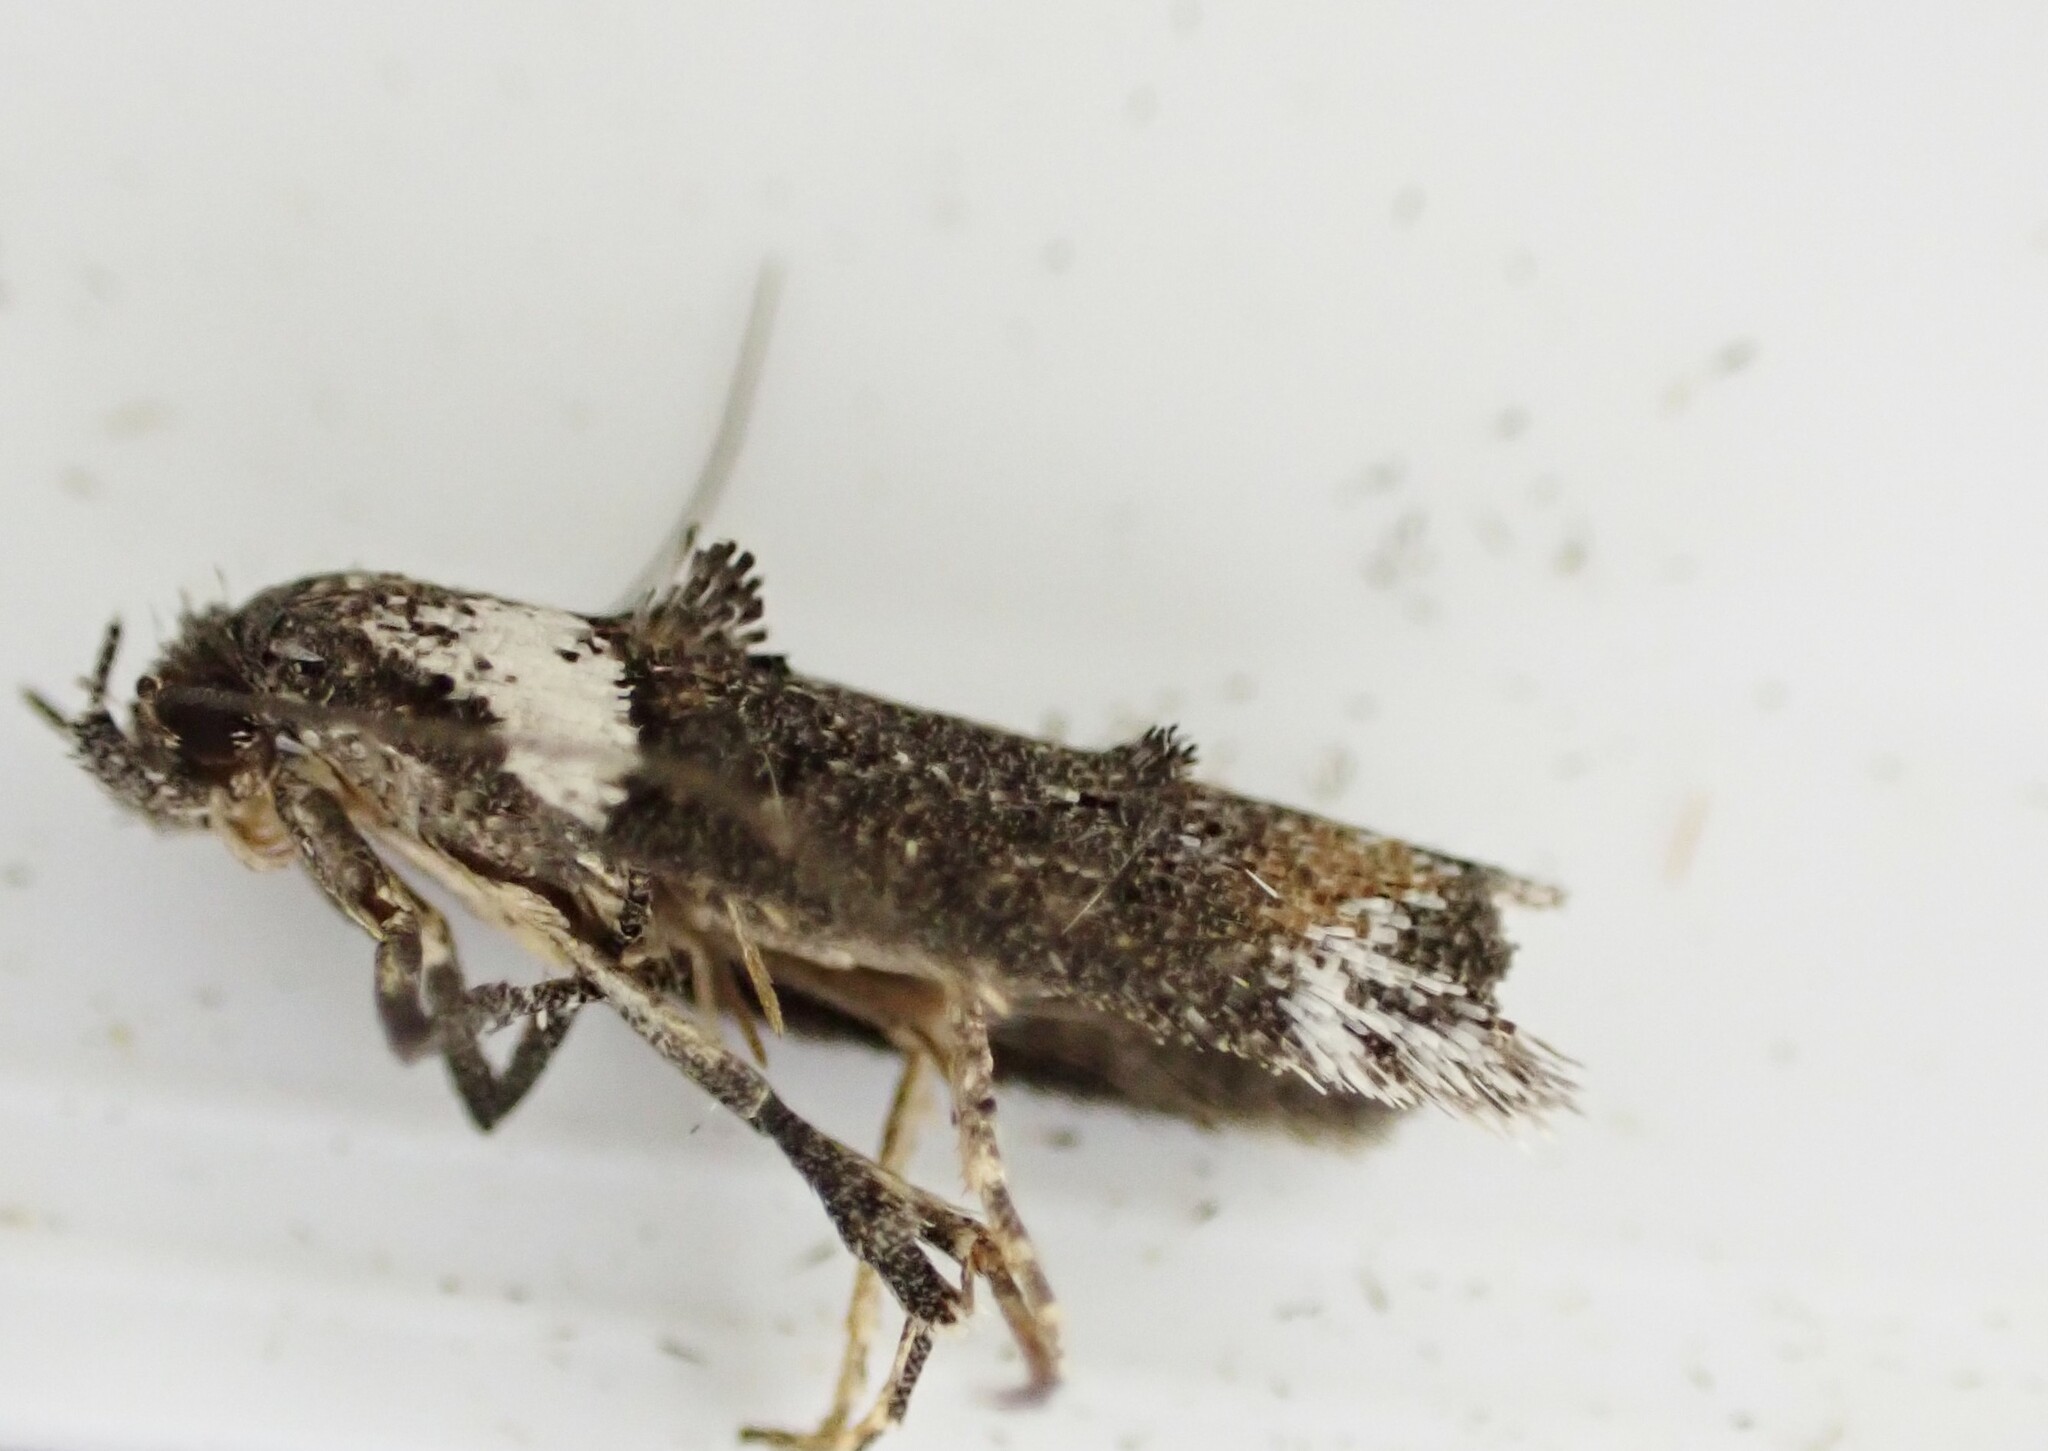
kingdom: Animalia
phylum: Arthropoda
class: Insecta
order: Lepidoptera
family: Oecophoridae
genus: Trachypepla
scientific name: Trachypepla conspicuella
